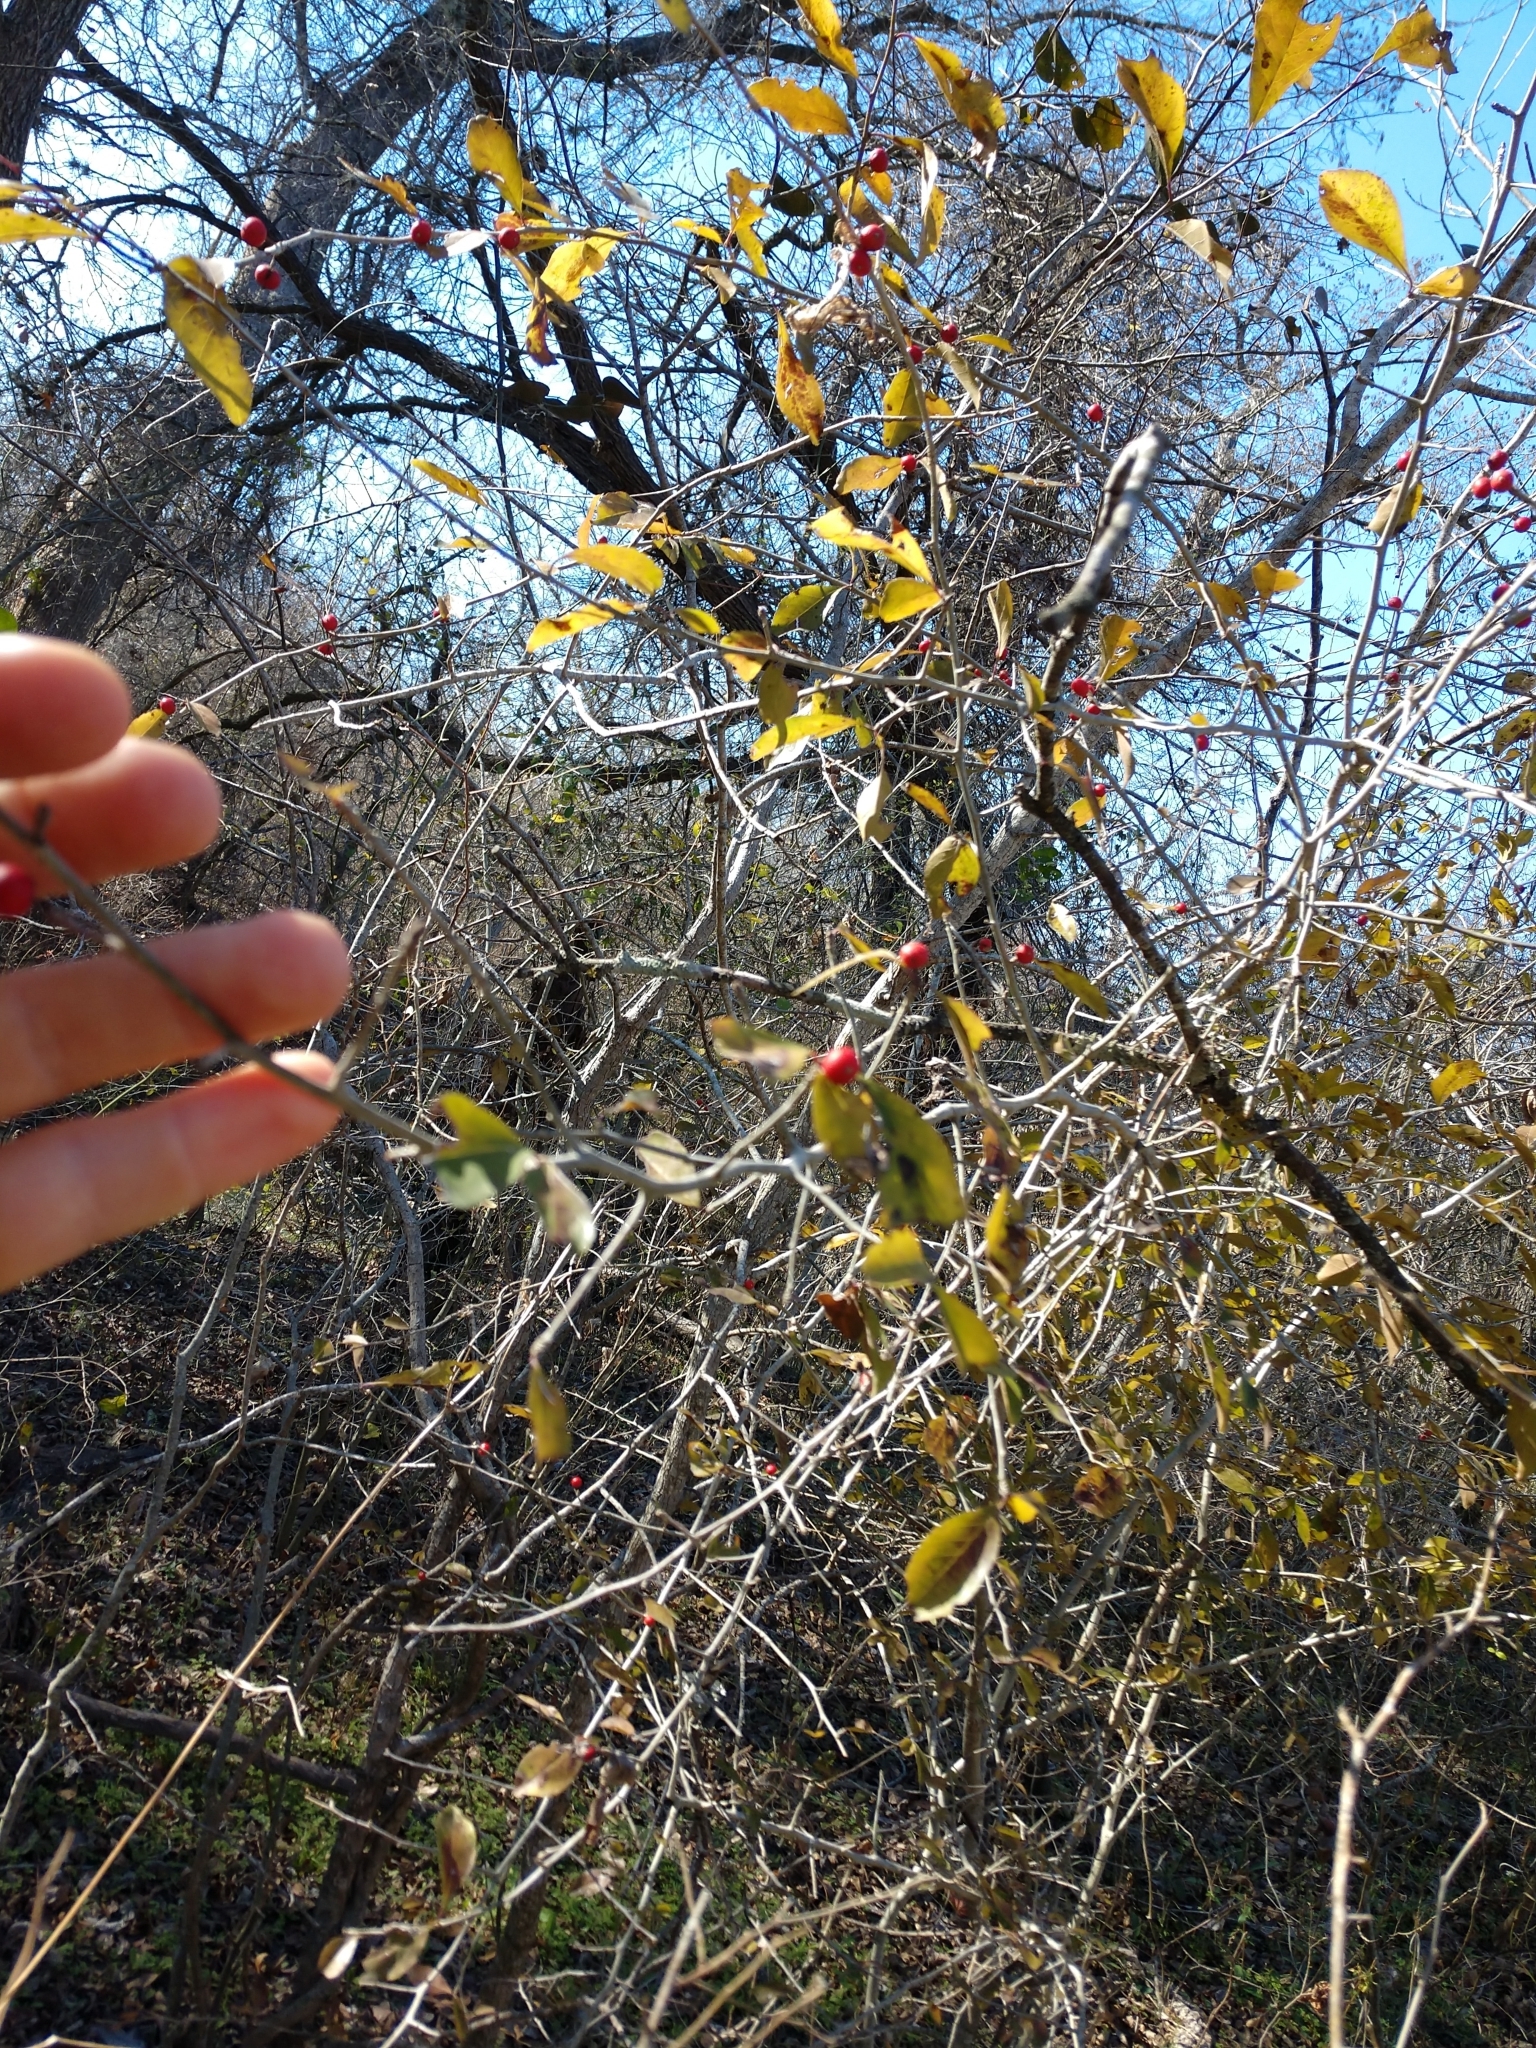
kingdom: Plantae
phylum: Tracheophyta
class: Magnoliopsida
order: Aquifoliales
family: Aquifoliaceae
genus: Ilex
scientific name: Ilex decidua
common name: Possum-haw
